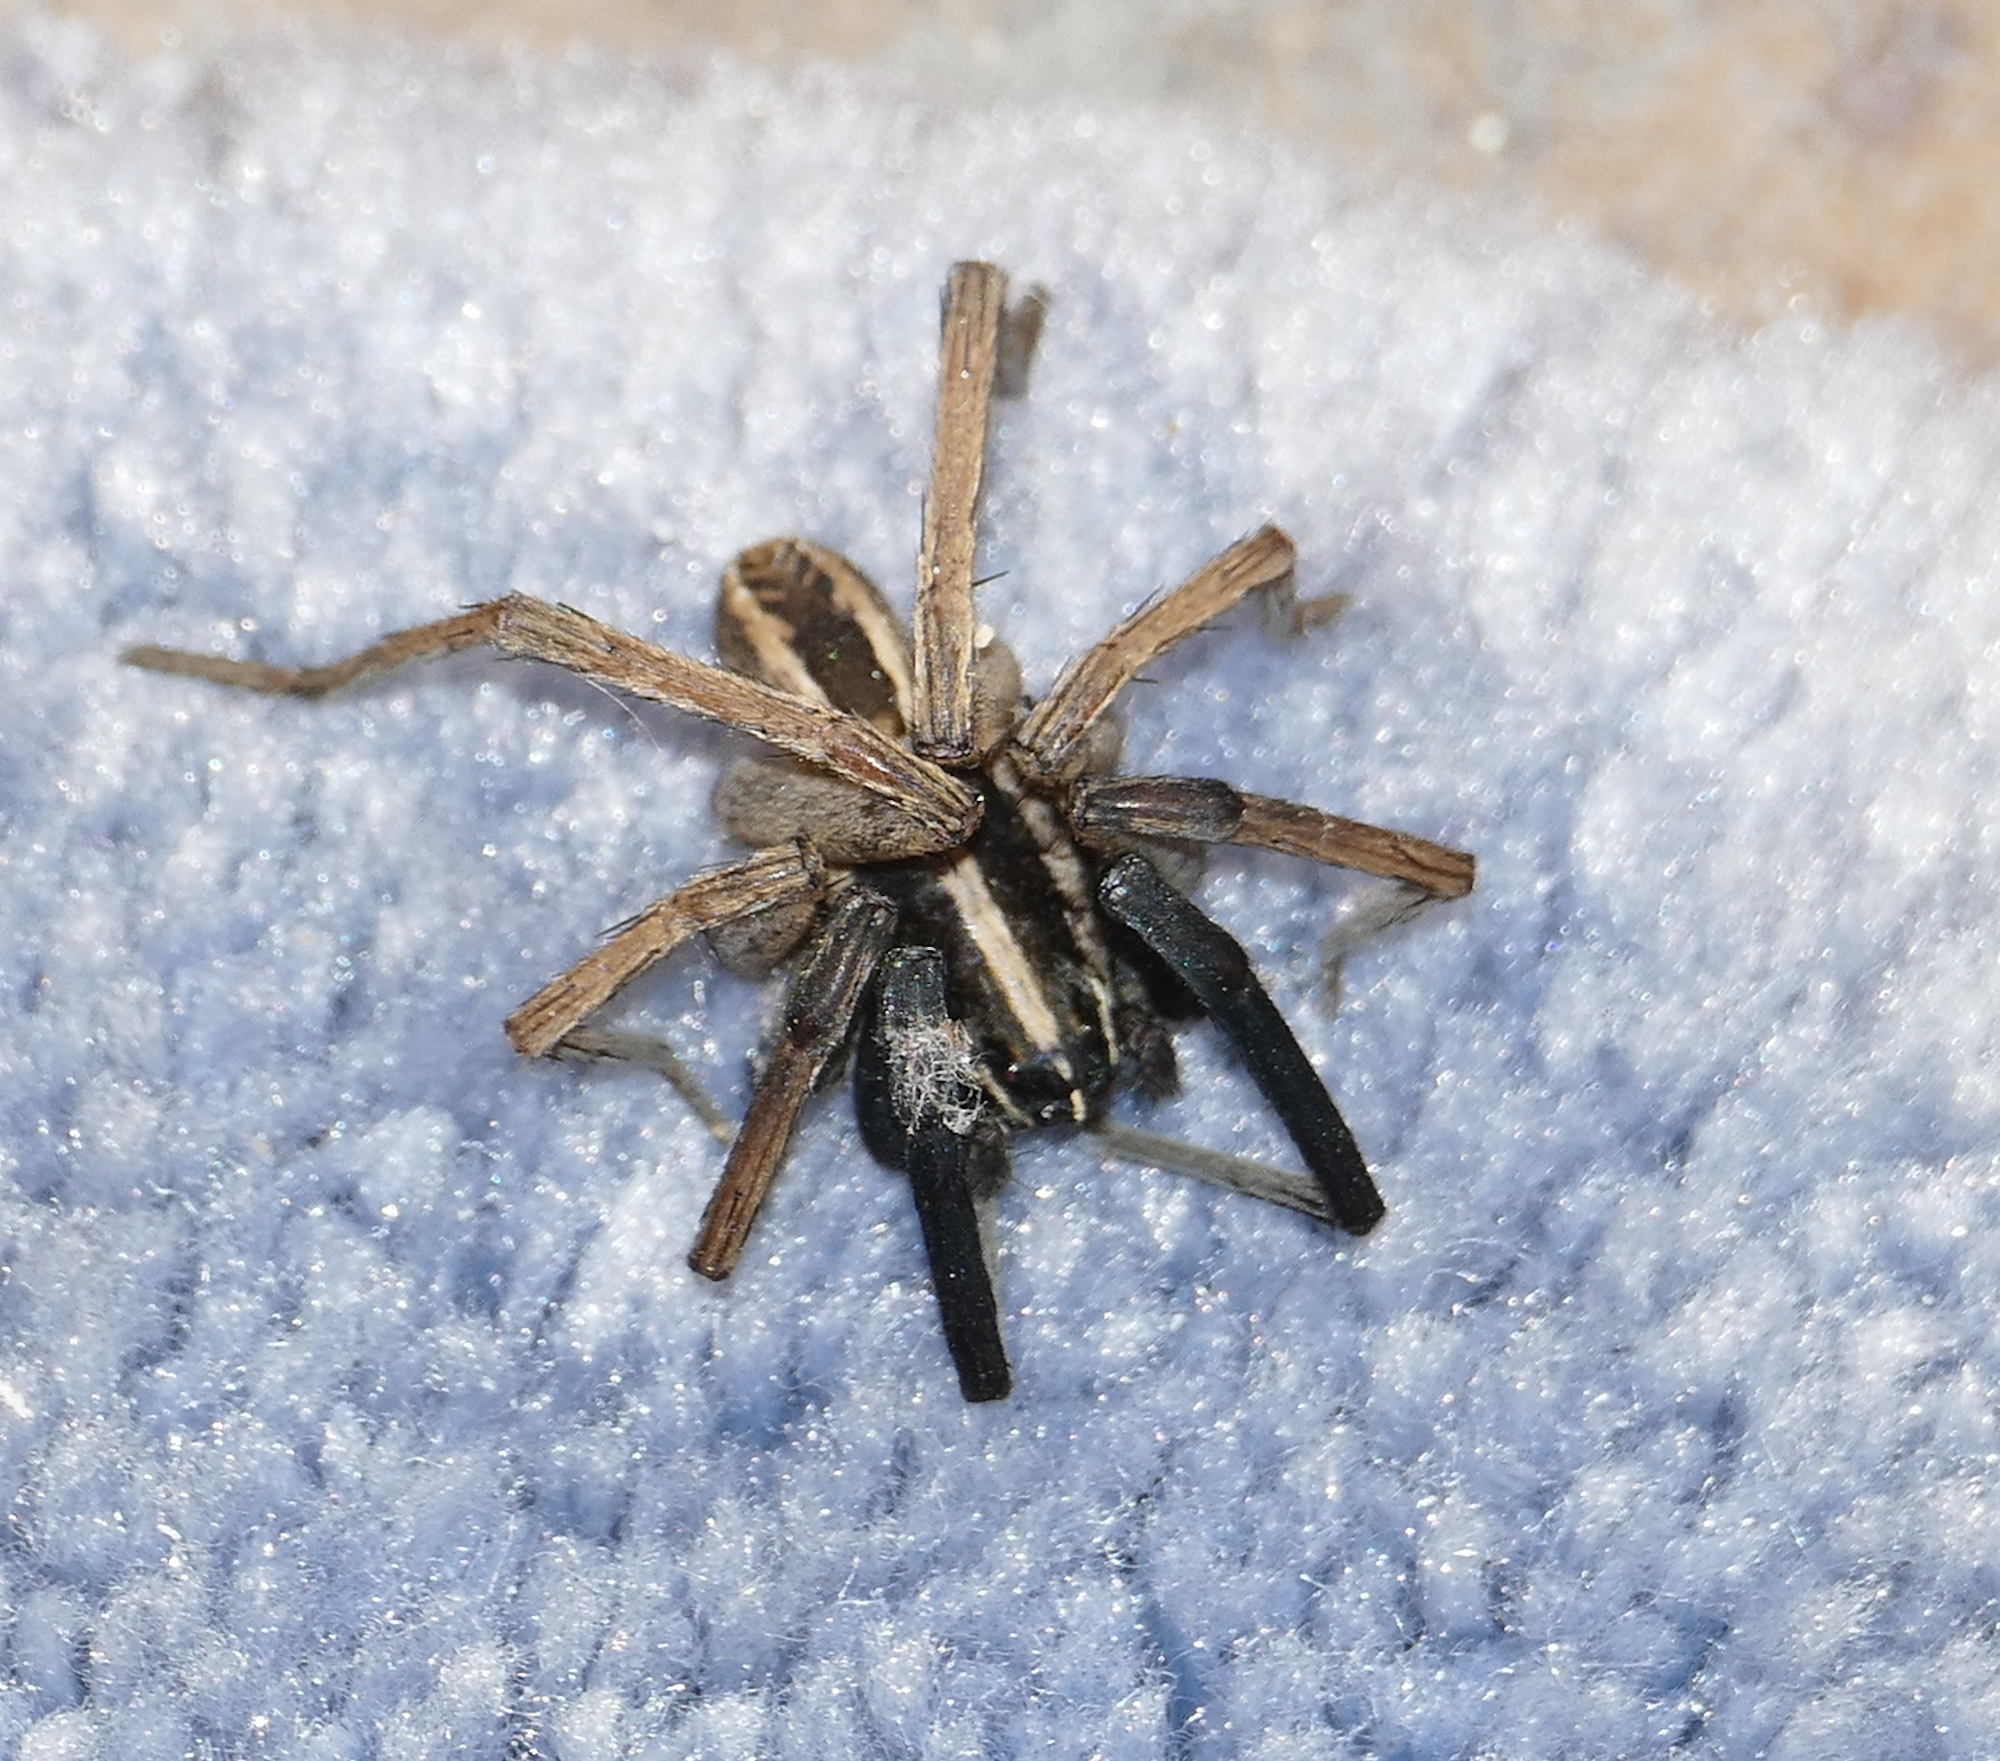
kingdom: Animalia
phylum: Arthropoda
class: Arachnida
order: Araneae
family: Lycosidae
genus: Rabidosa
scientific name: Rabidosa rabida
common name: Rabid wolf spider
